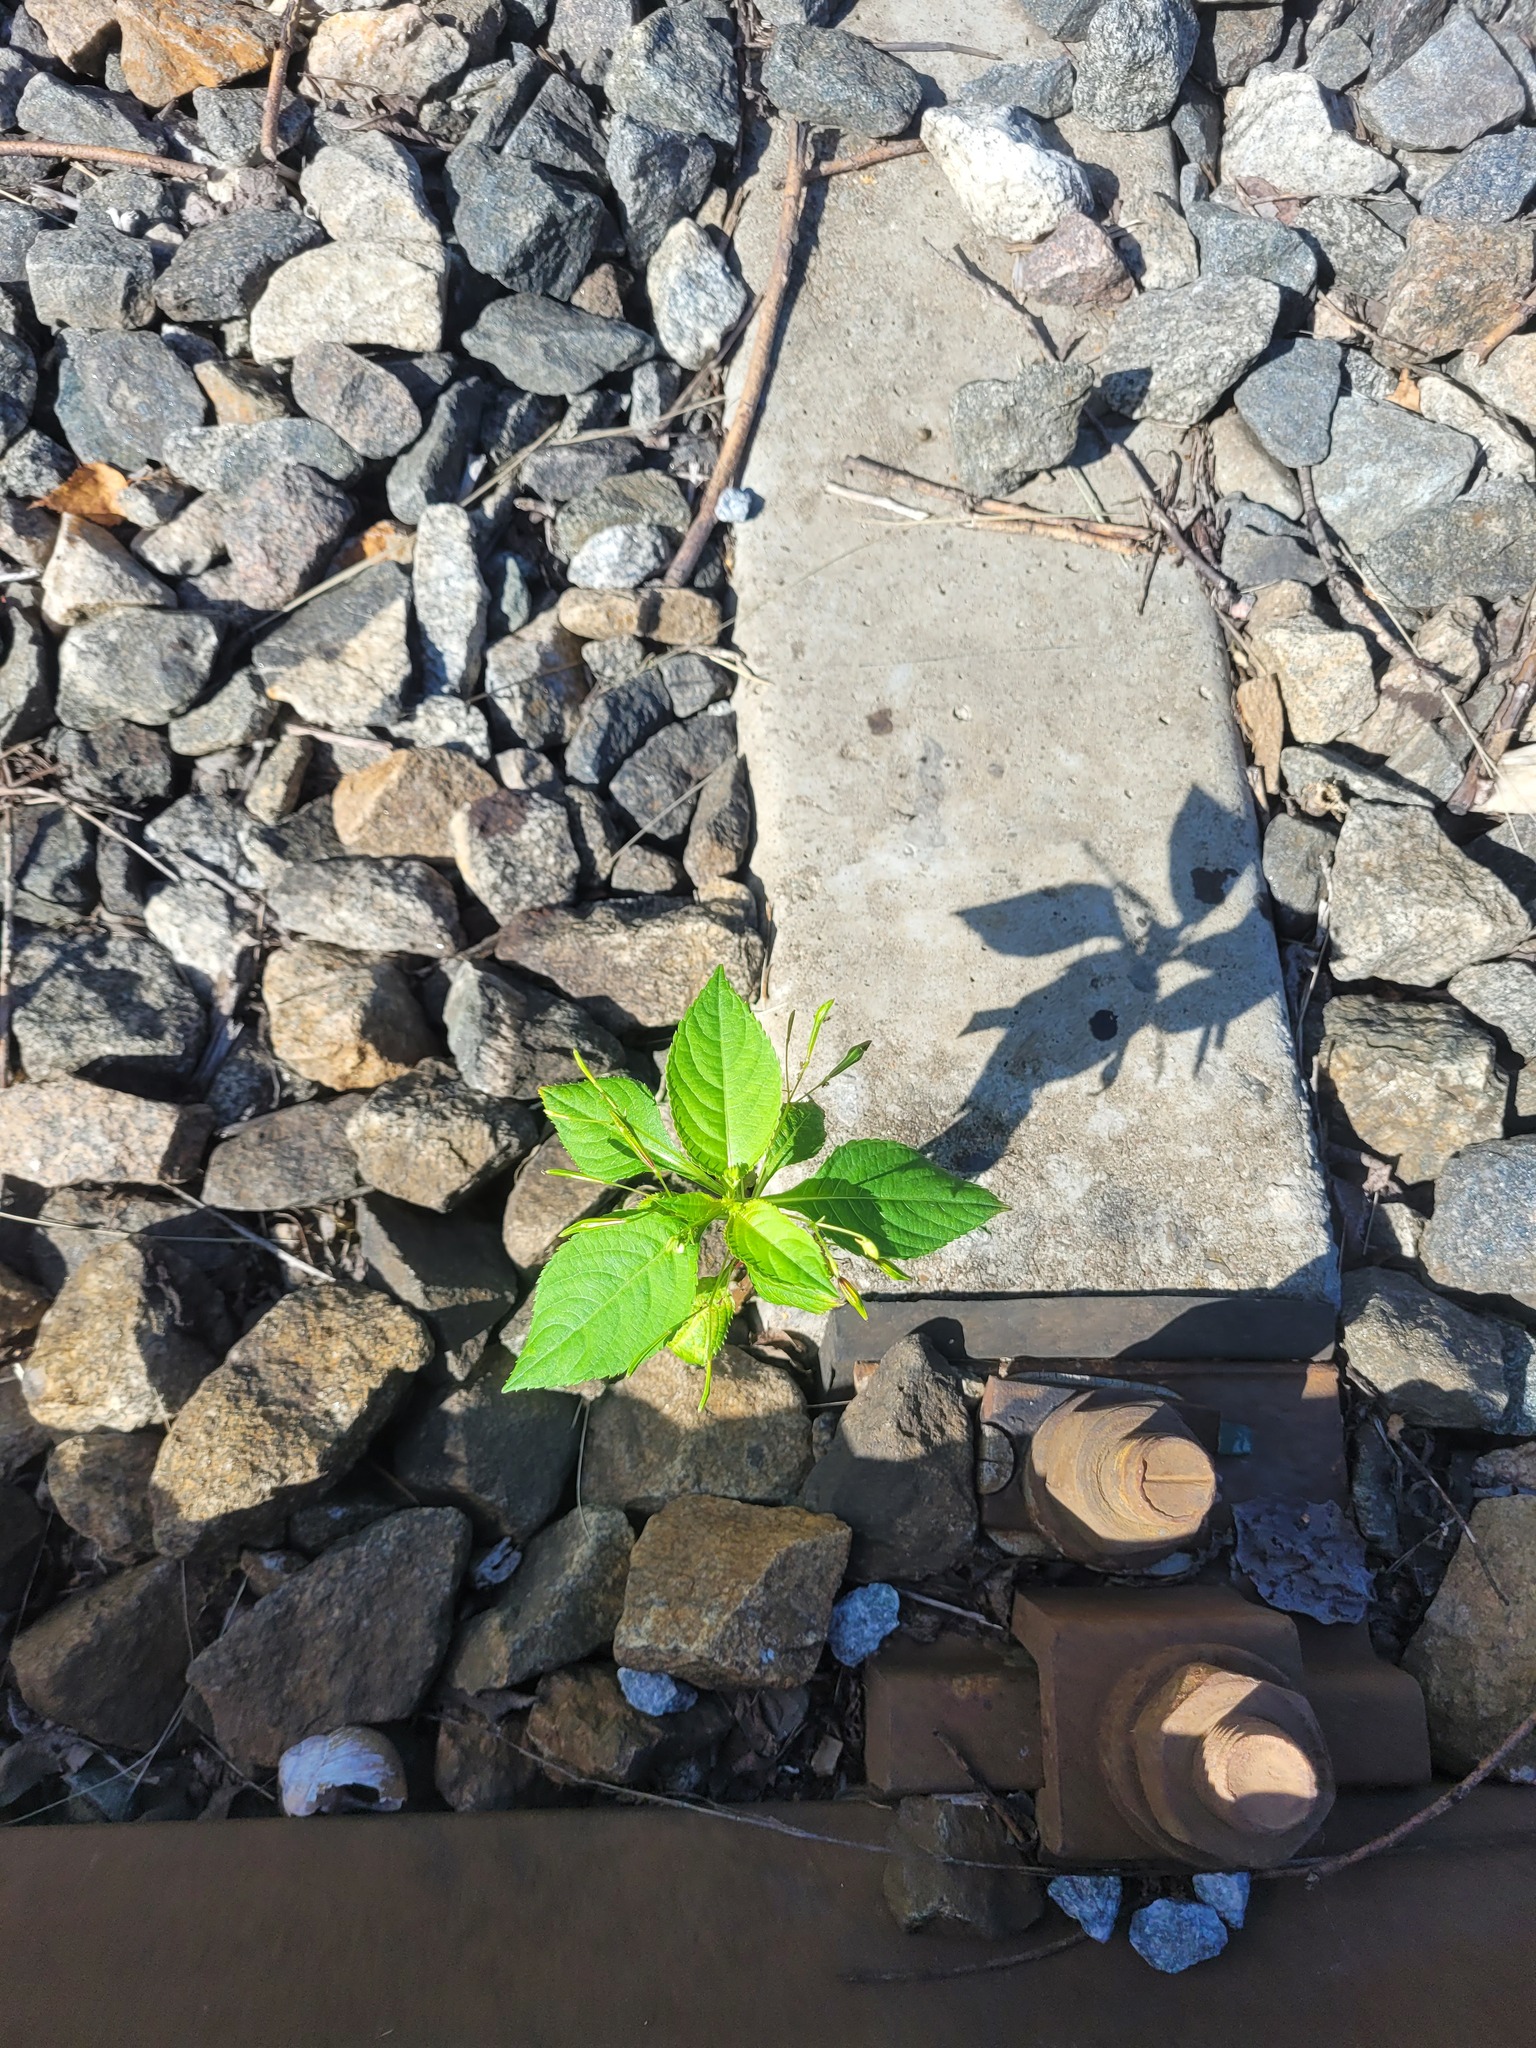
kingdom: Plantae
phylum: Tracheophyta
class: Magnoliopsida
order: Ericales
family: Balsaminaceae
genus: Impatiens
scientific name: Impatiens parviflora
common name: Small balsam
